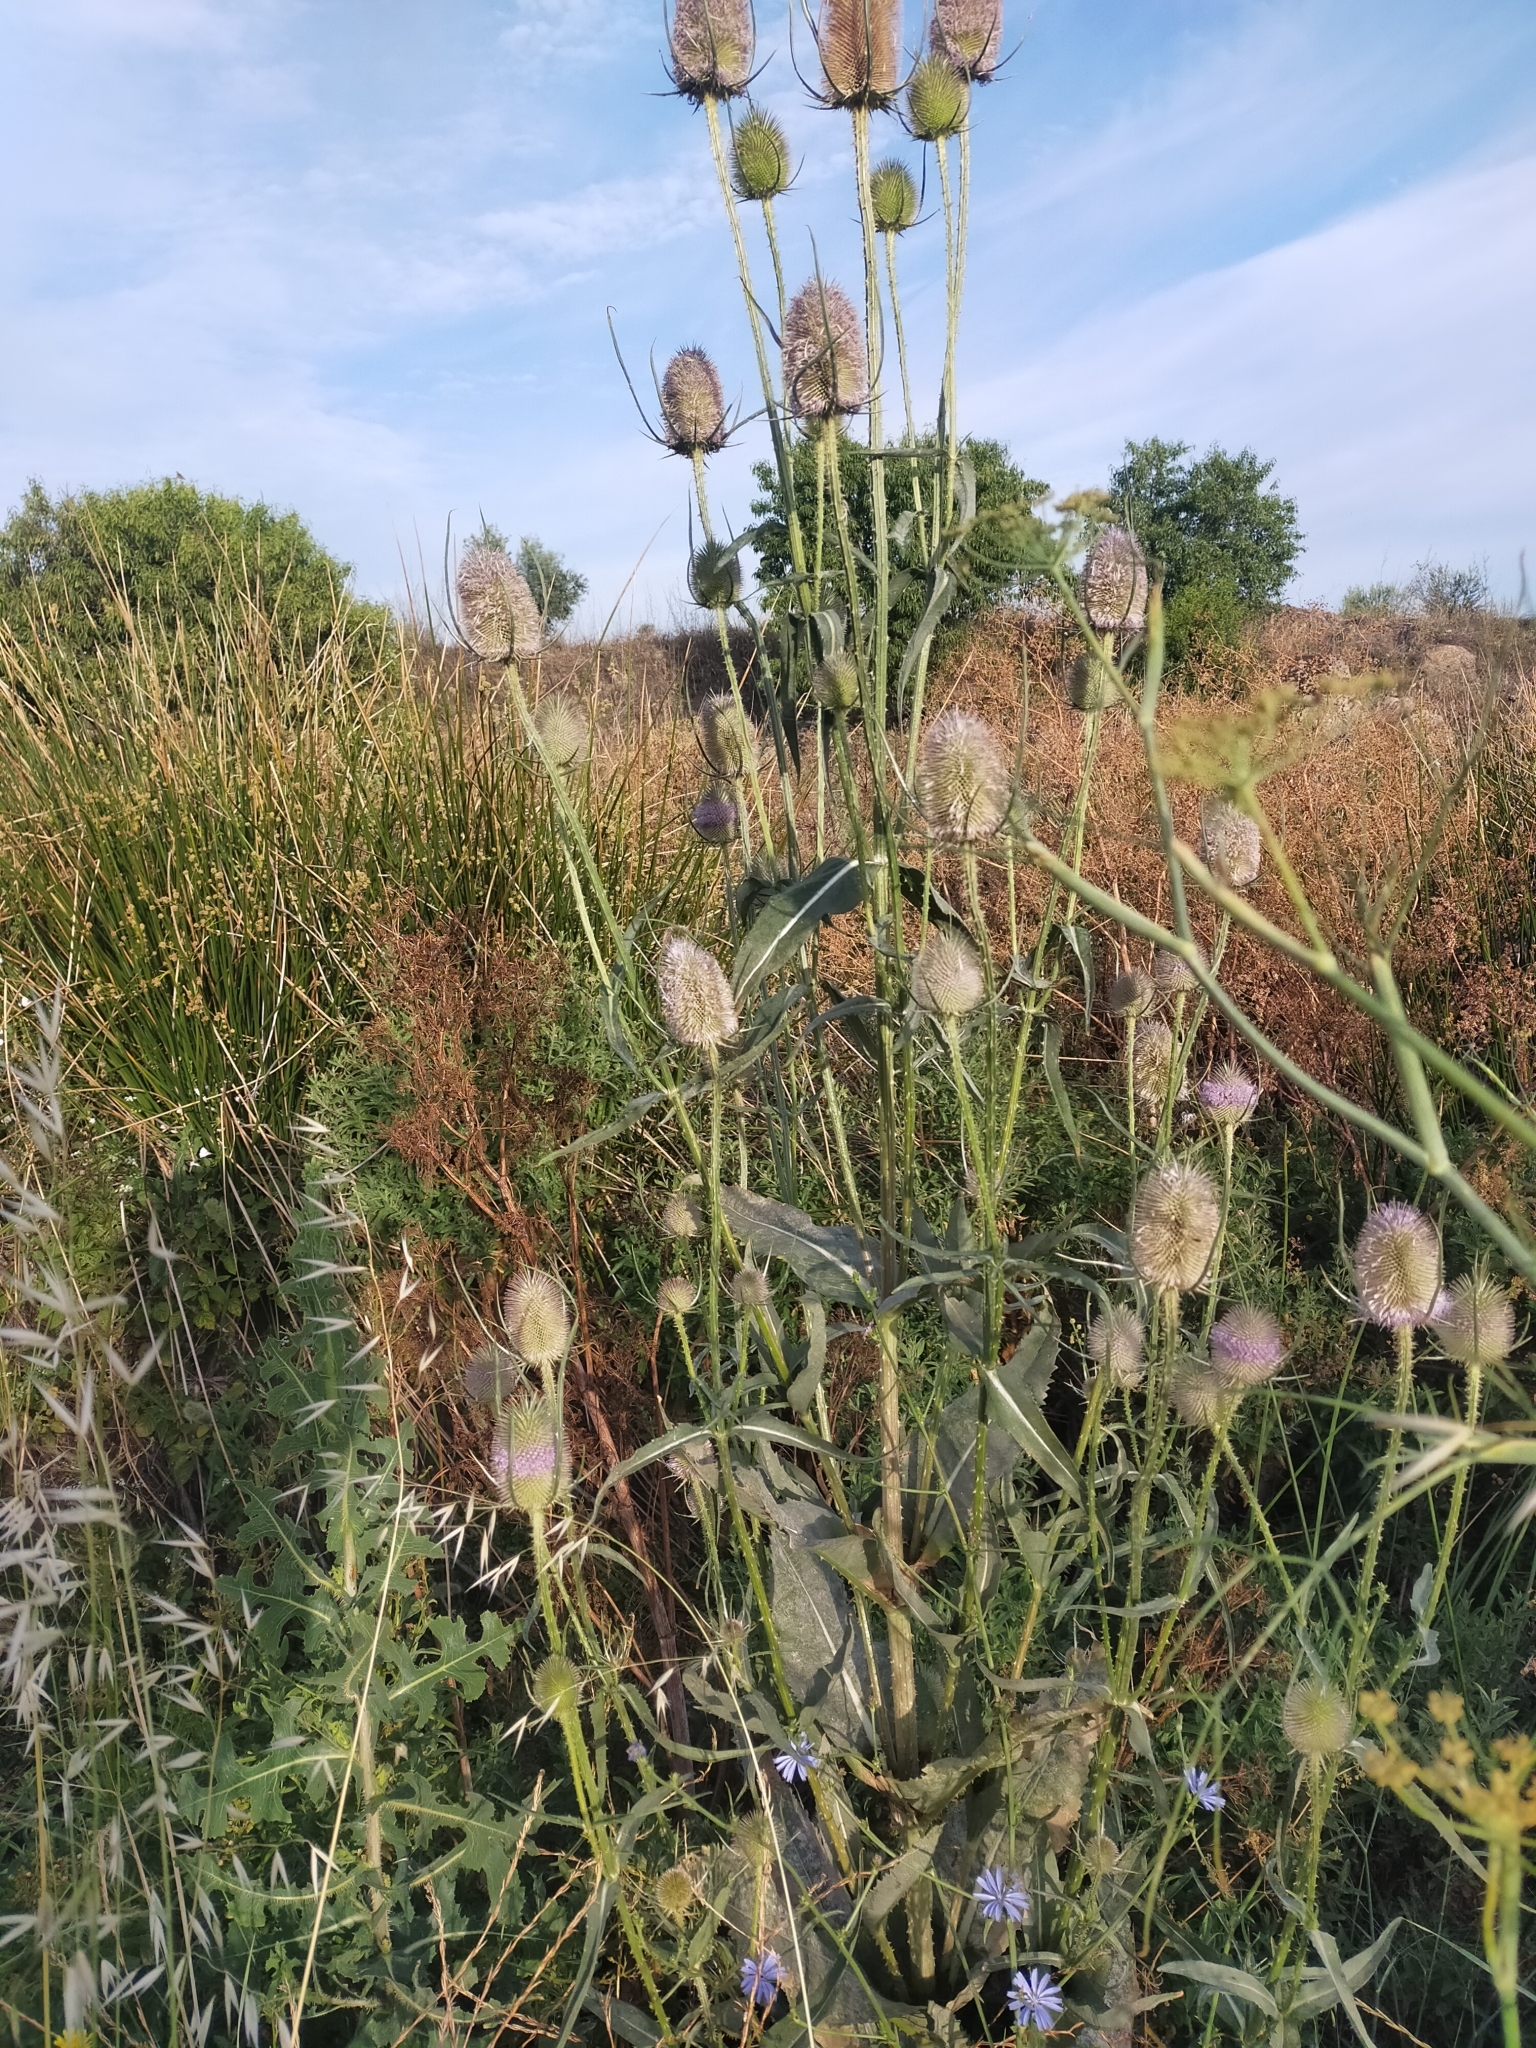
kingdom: Plantae
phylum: Tracheophyta
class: Magnoliopsida
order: Dipsacales
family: Caprifoliaceae
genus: Dipsacus
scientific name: Dipsacus fullonum
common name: Teasel
